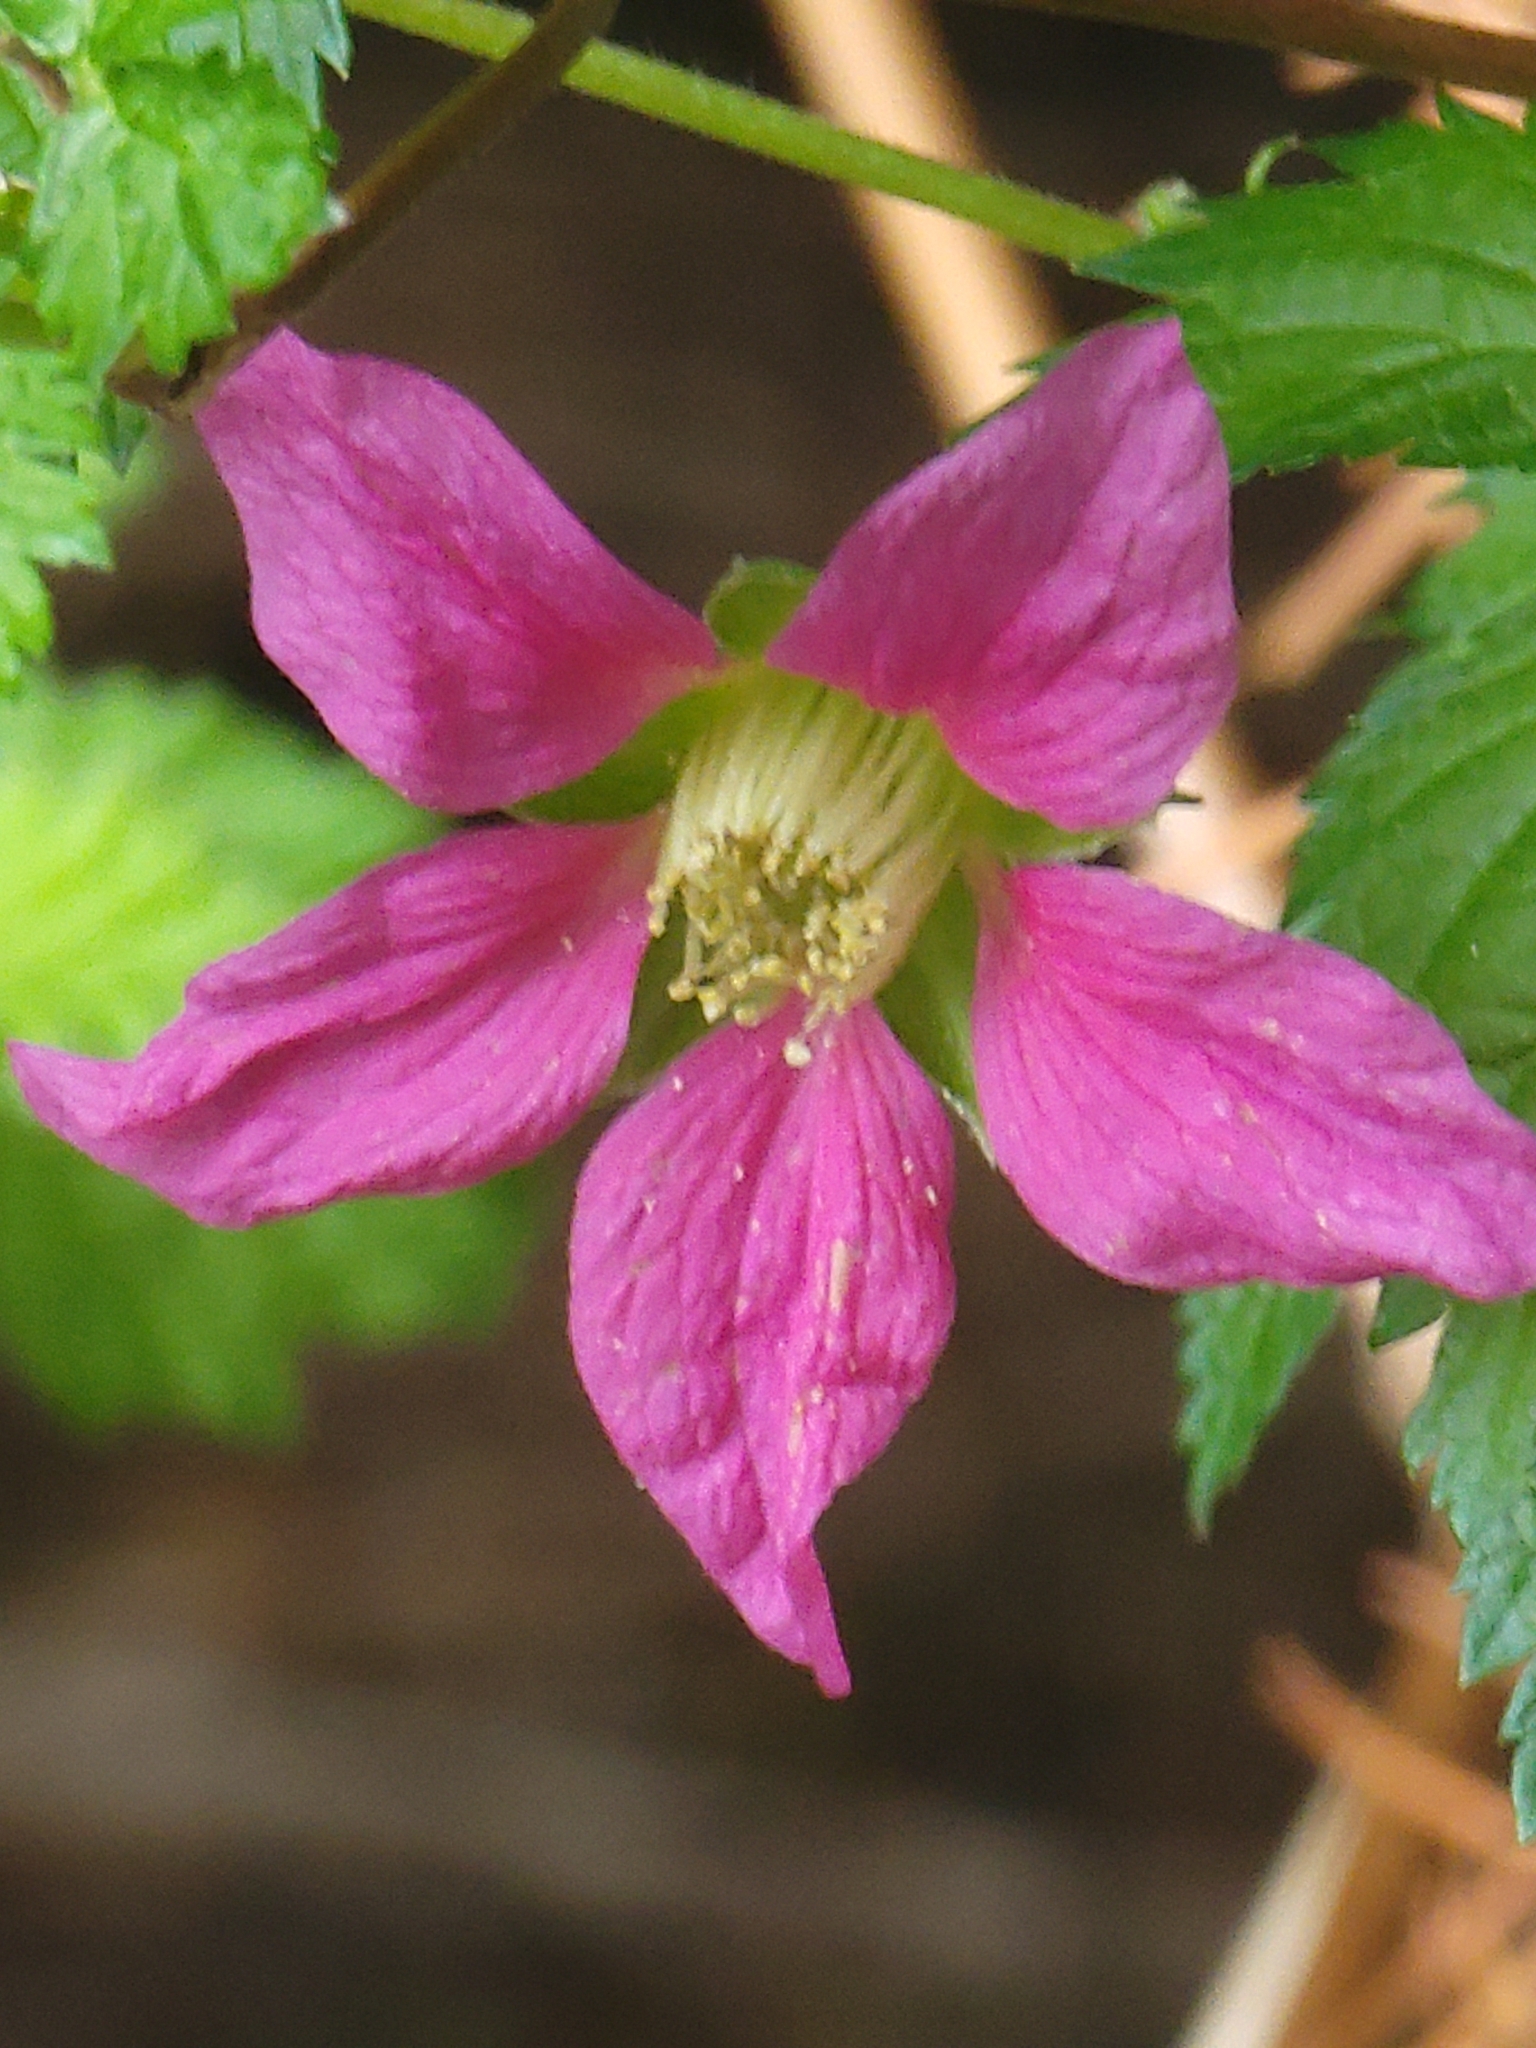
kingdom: Plantae
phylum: Tracheophyta
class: Magnoliopsida
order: Rosales
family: Rosaceae
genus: Rubus
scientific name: Rubus spectabilis
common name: Salmonberry
